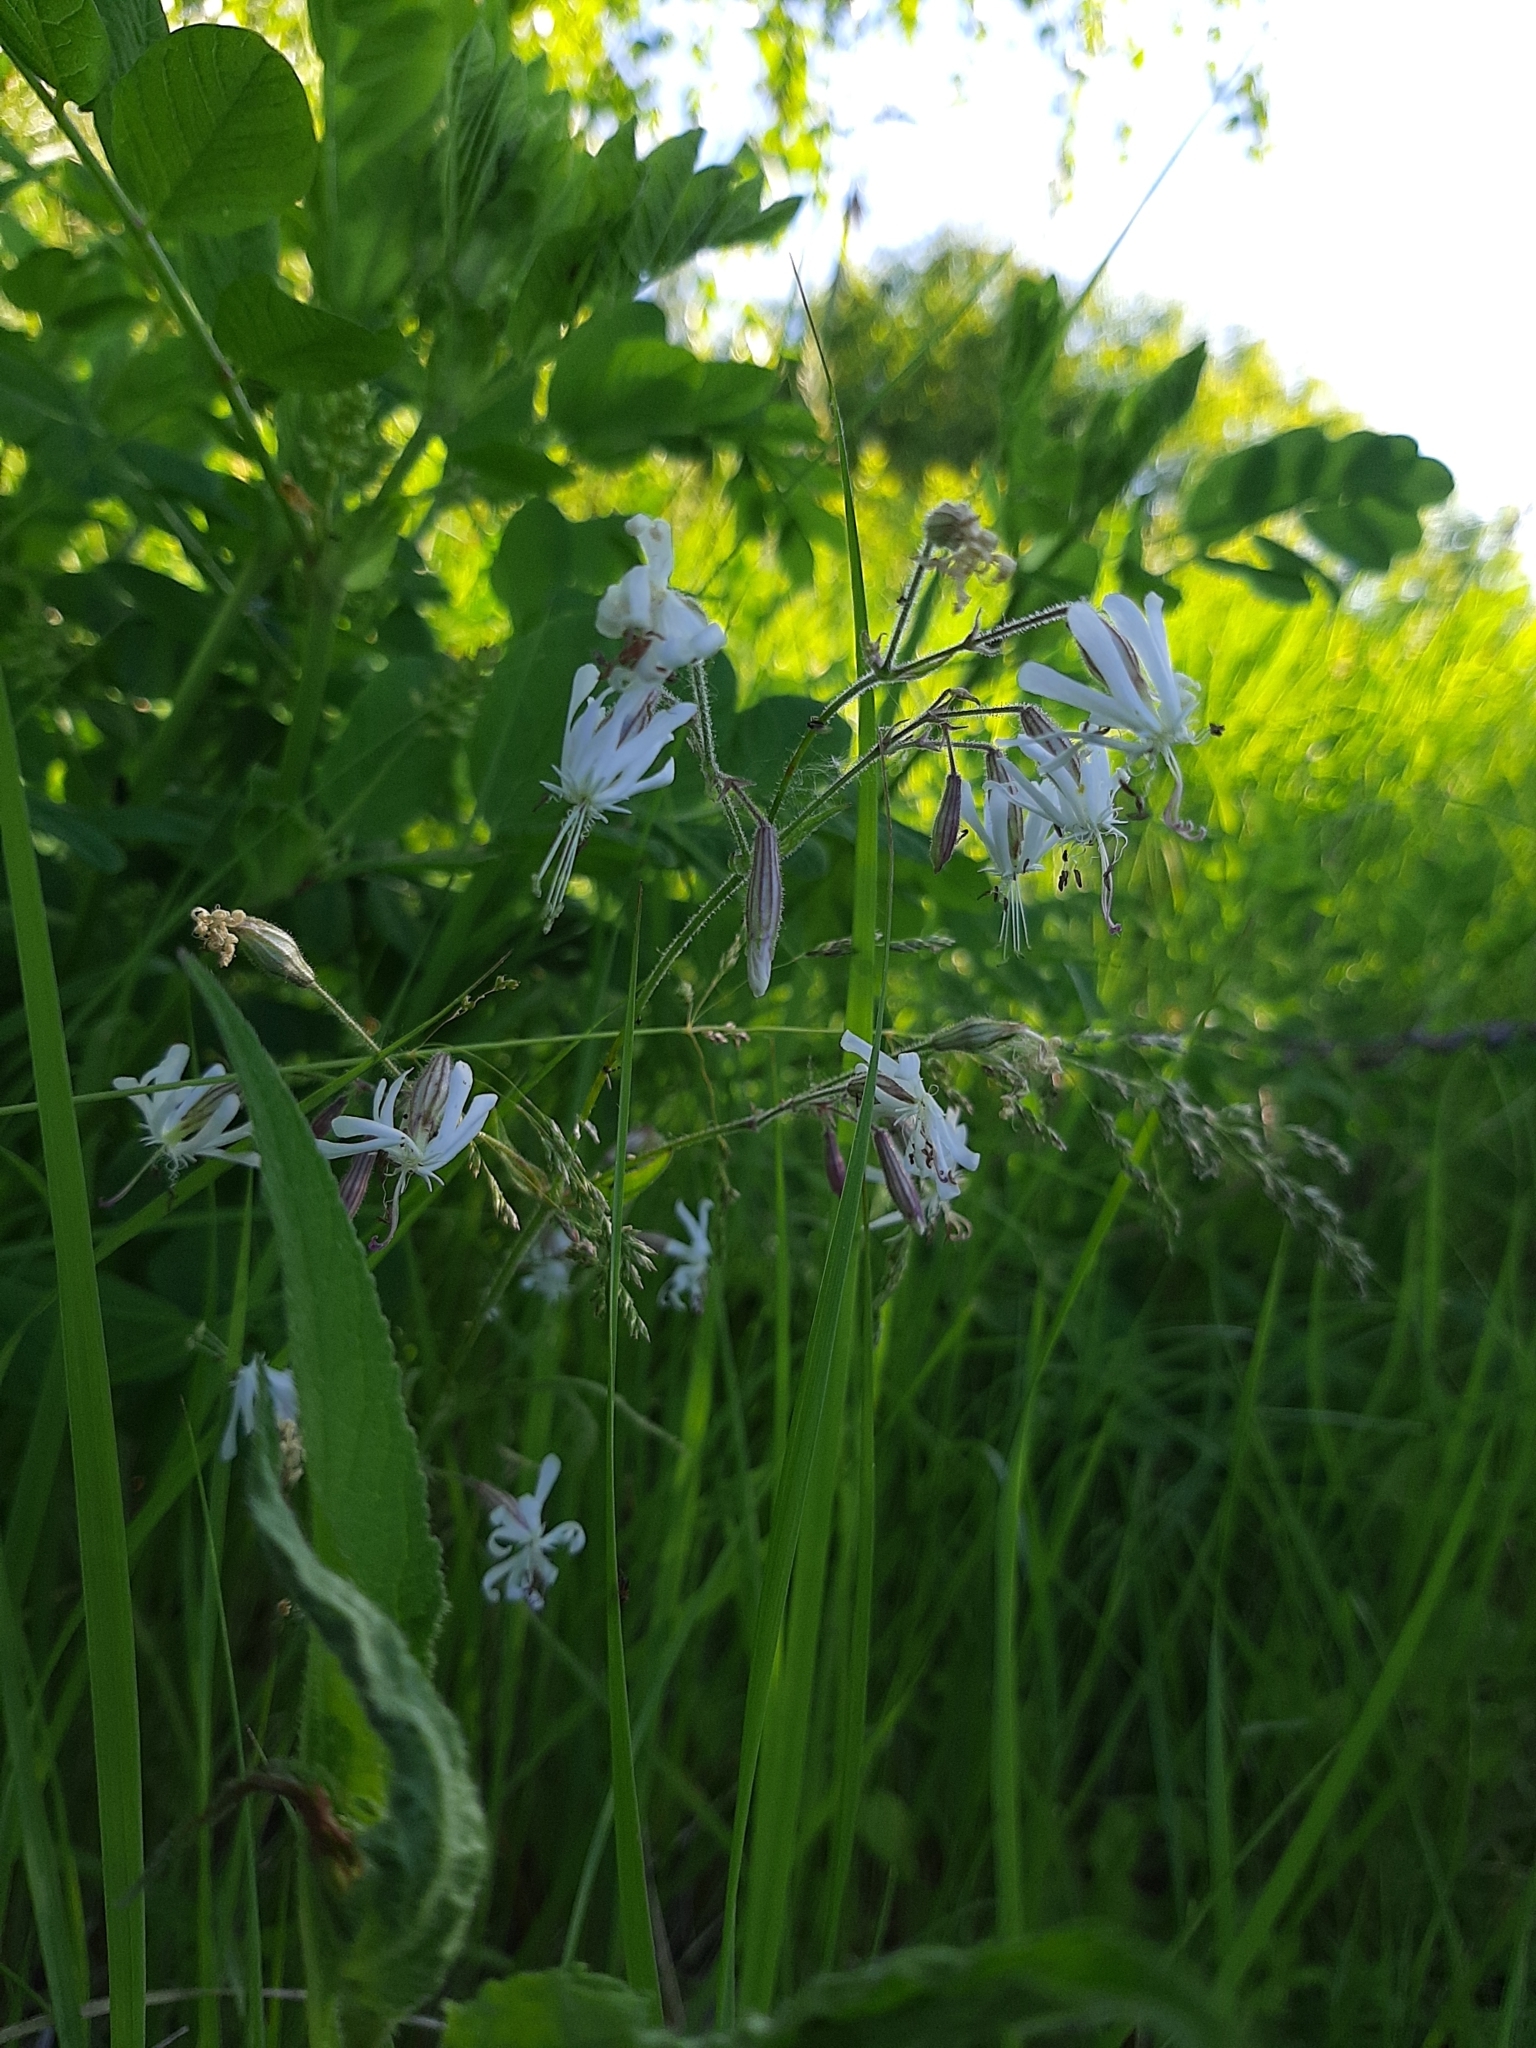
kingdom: Plantae
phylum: Tracheophyta
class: Magnoliopsida
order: Caryophyllales
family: Caryophyllaceae
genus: Silene
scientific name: Silene nutans
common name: Nottingham catchfly
